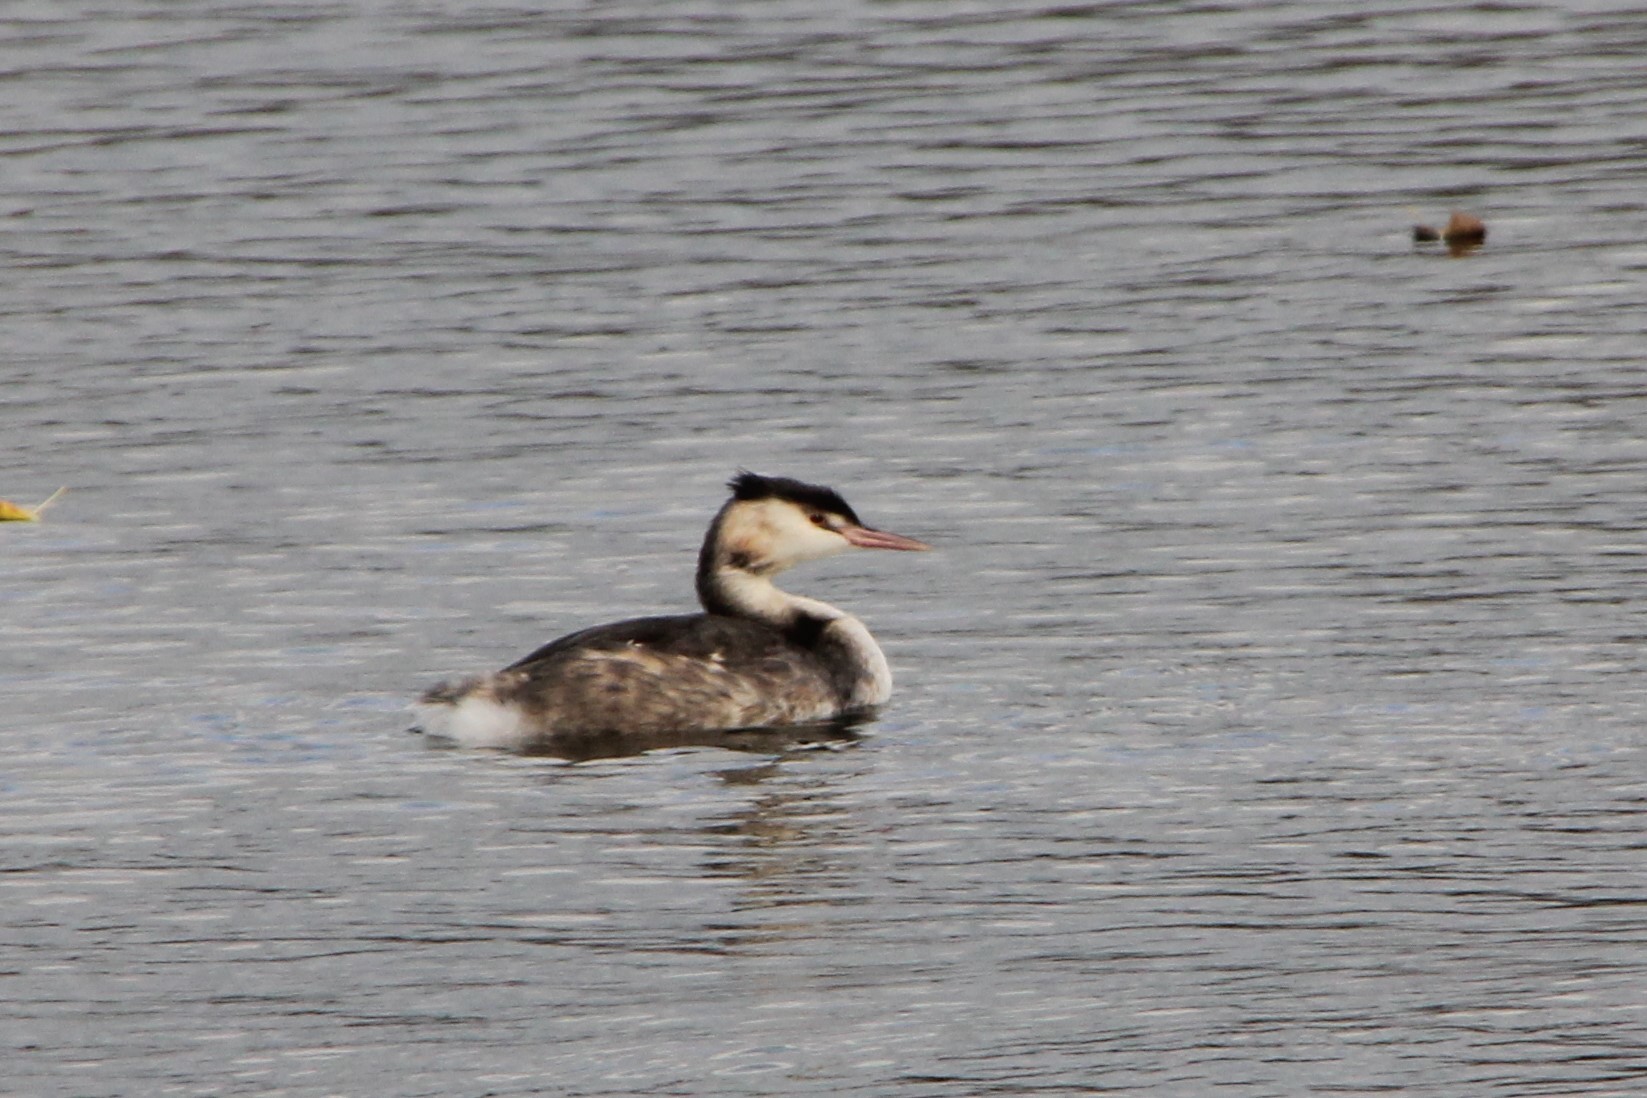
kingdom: Animalia
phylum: Chordata
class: Aves
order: Podicipediformes
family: Podicipedidae
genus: Podiceps
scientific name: Podiceps cristatus
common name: Great crested grebe
